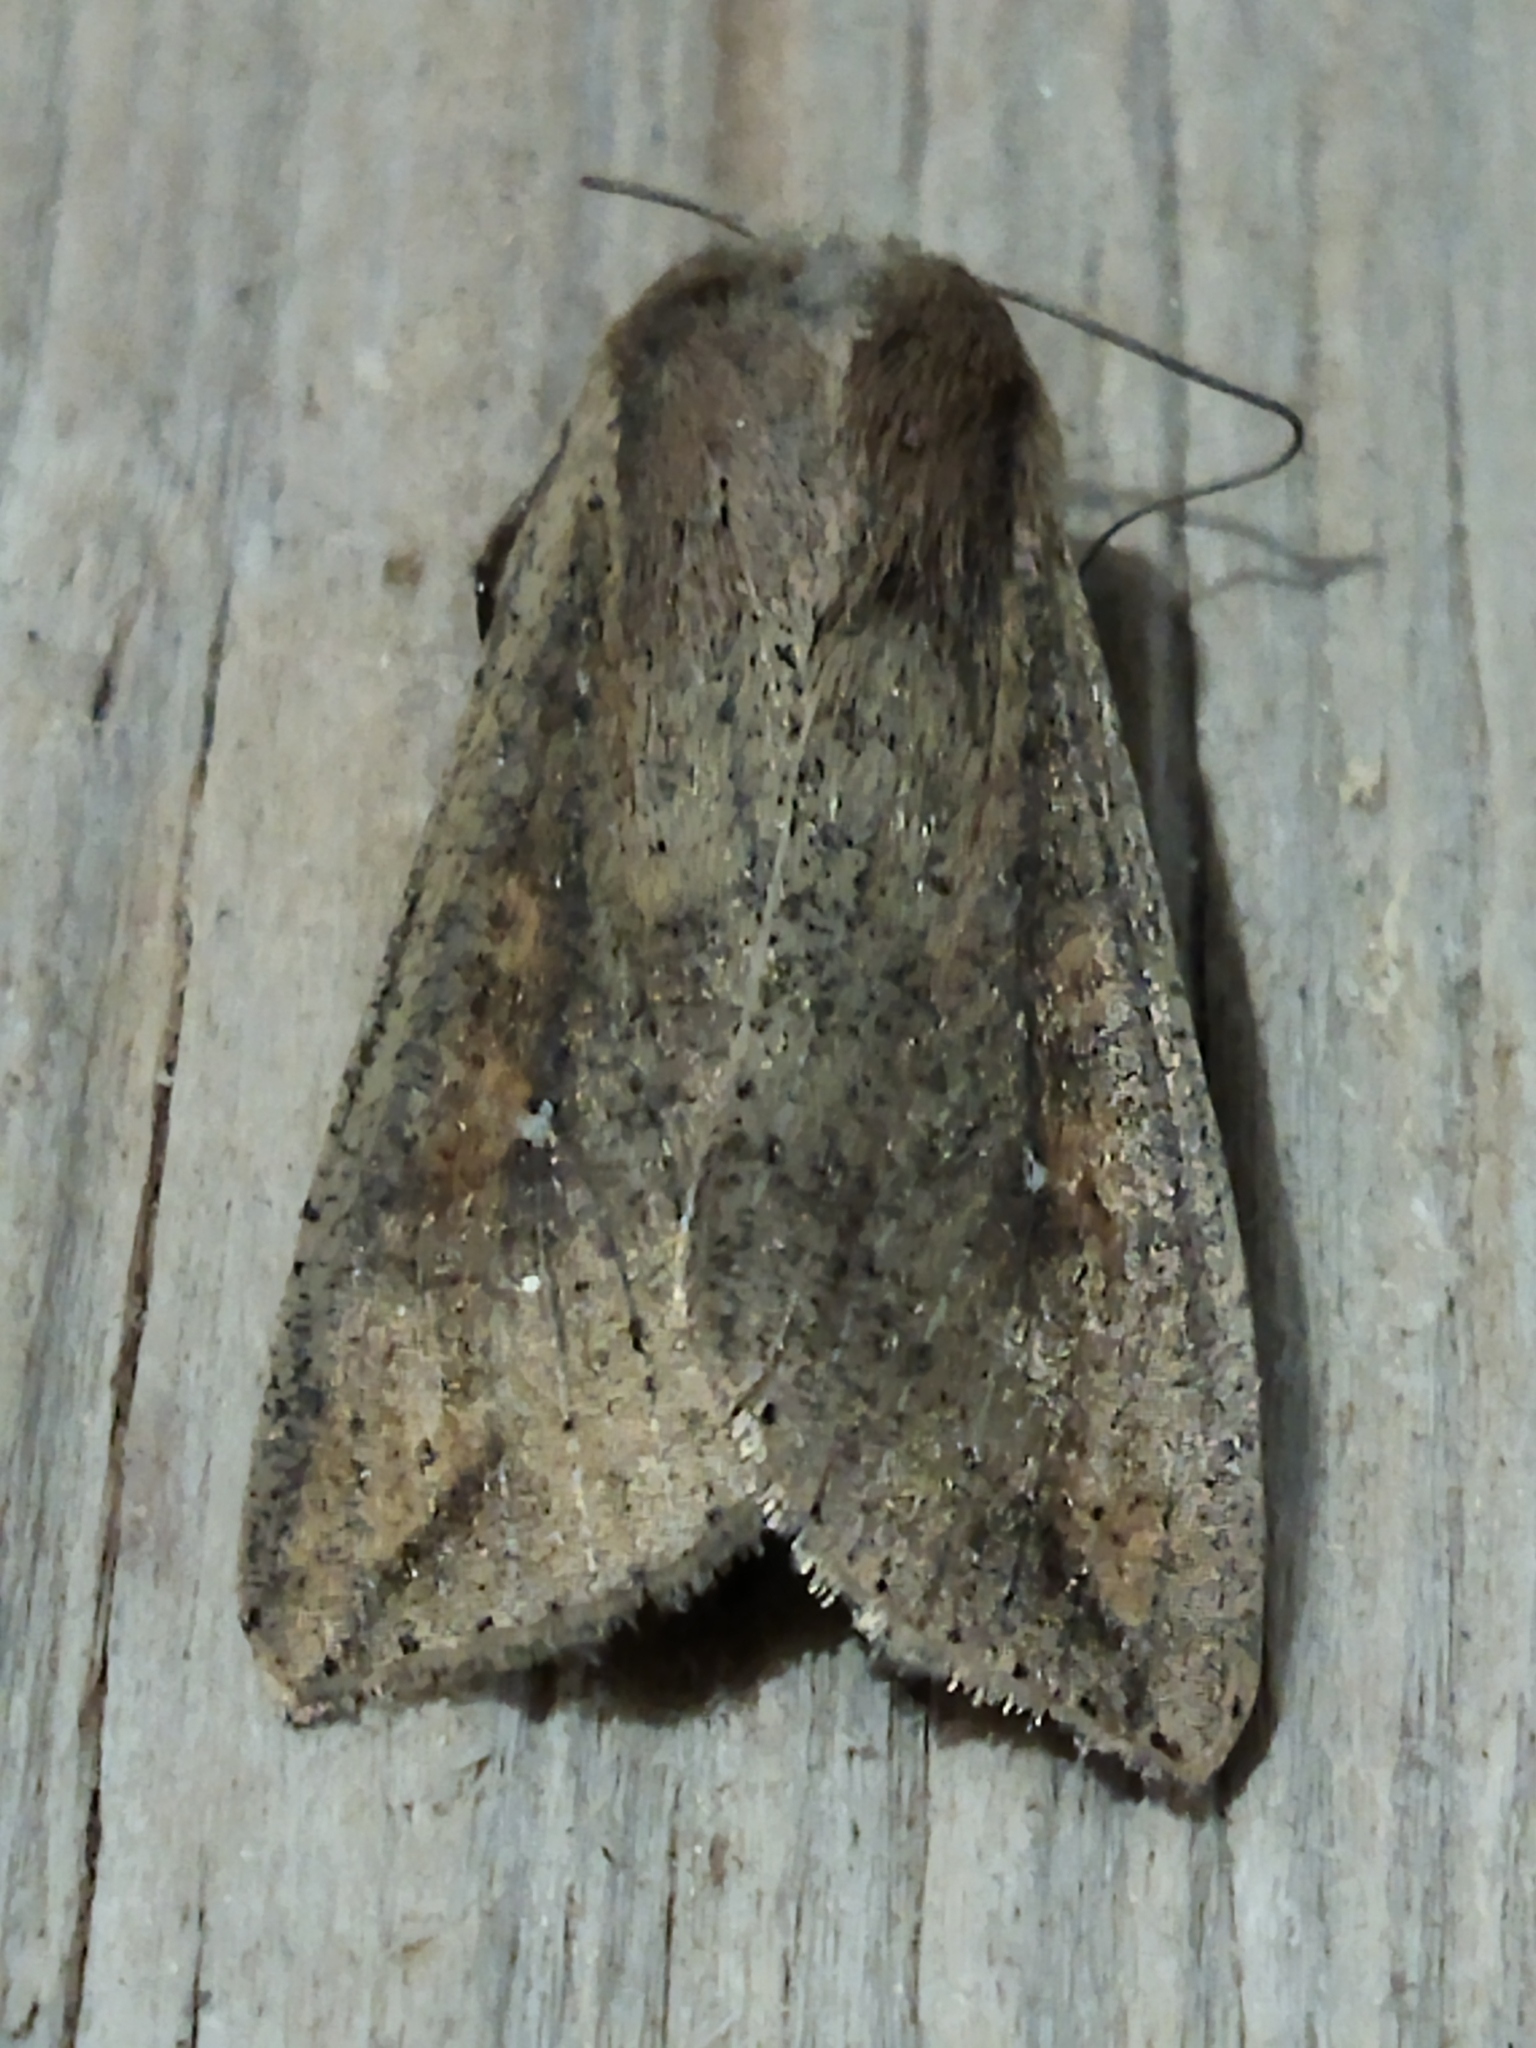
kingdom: Animalia
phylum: Arthropoda
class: Insecta
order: Lepidoptera
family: Noctuidae
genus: Mythimna
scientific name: Mythimna unipuncta
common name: White-speck
